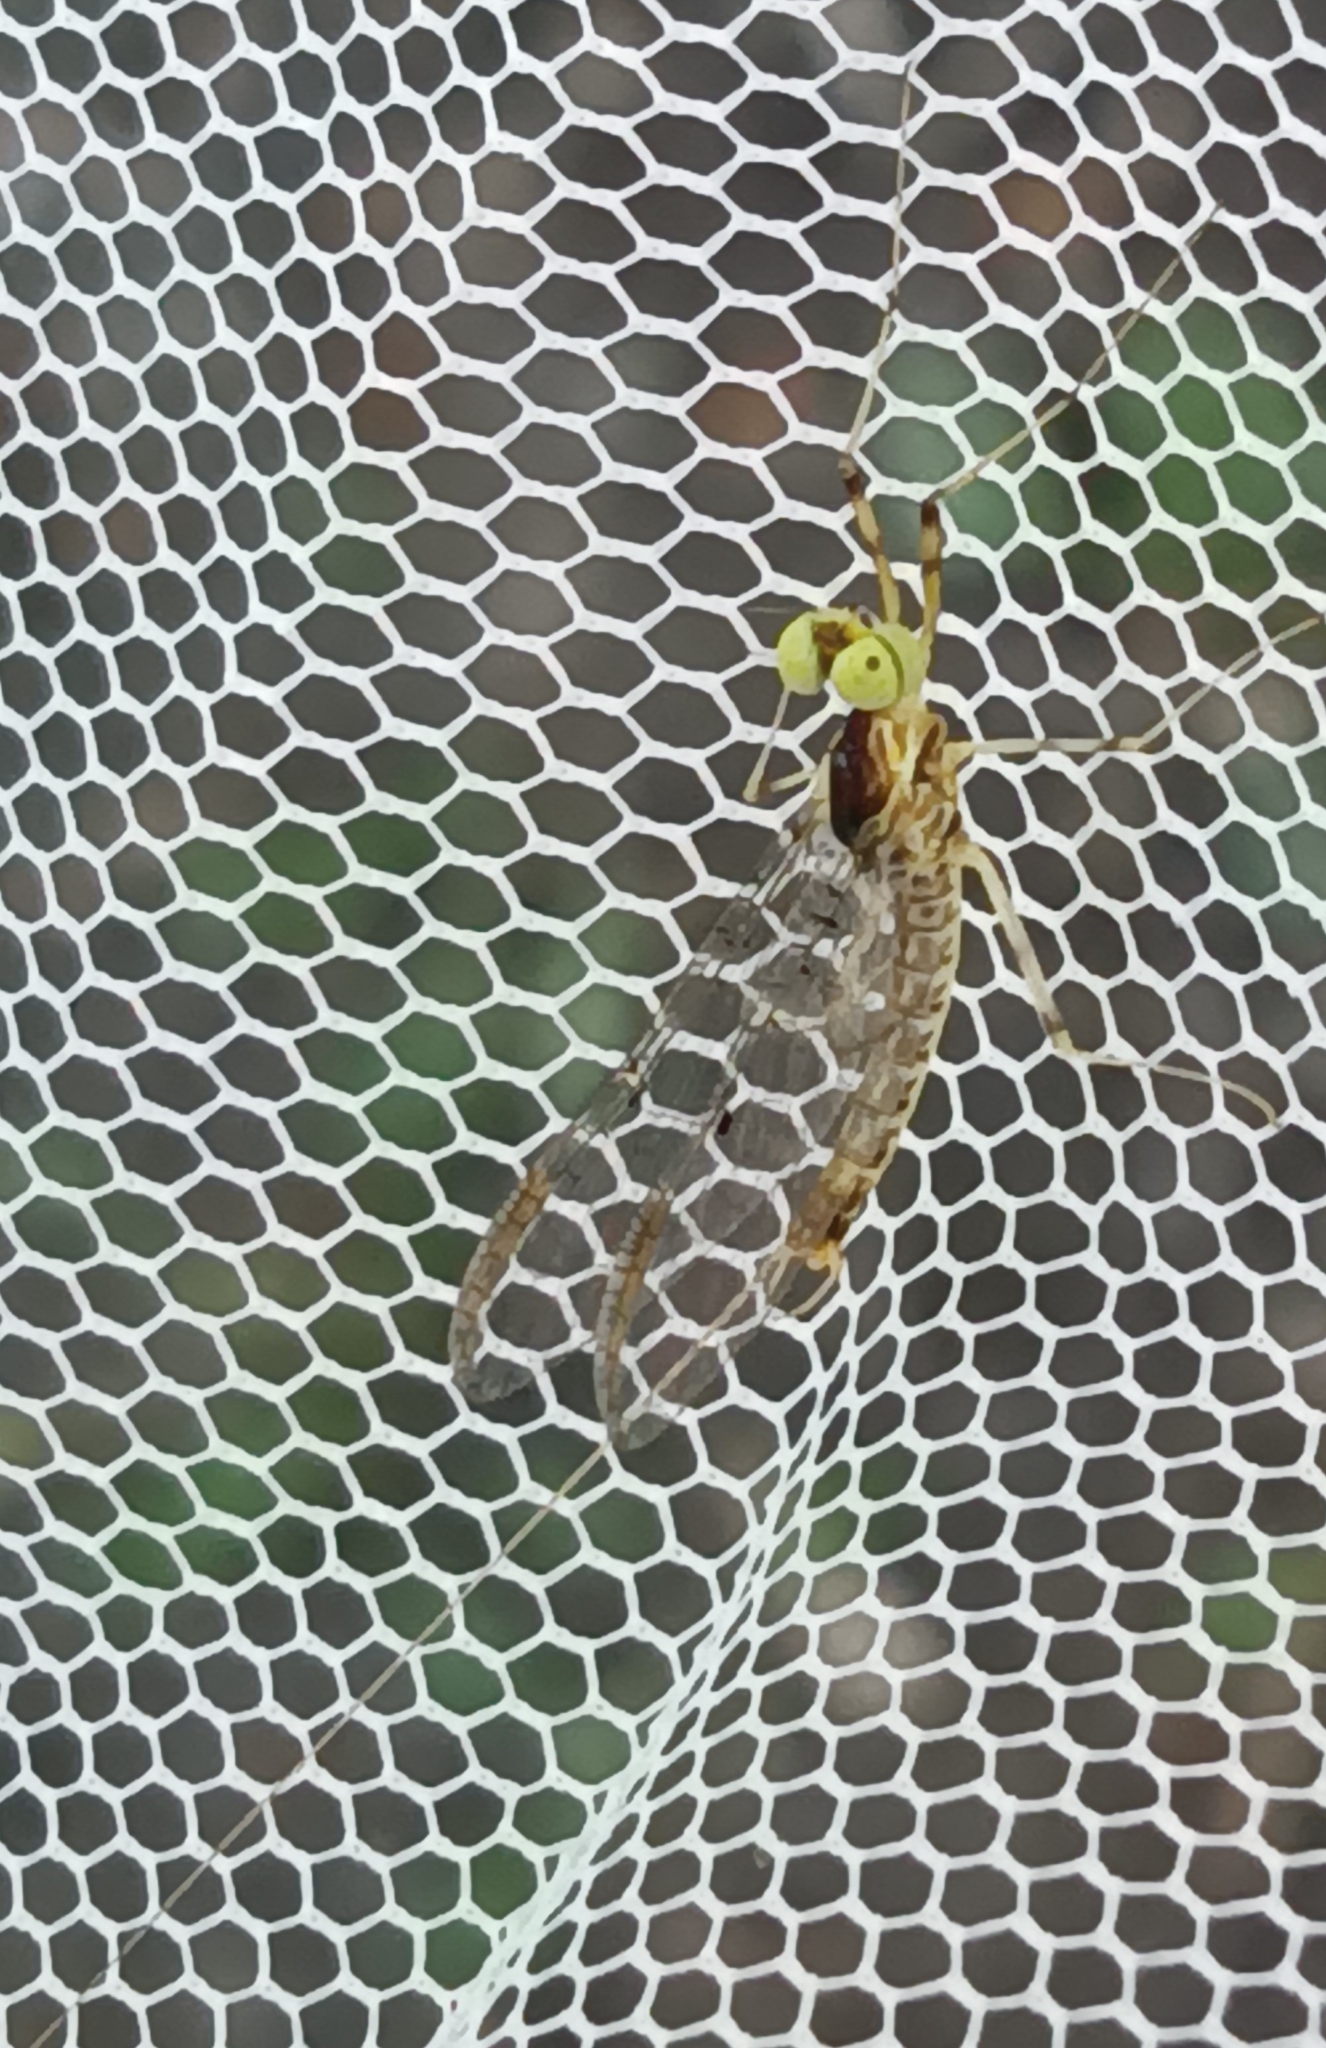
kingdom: Animalia
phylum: Arthropoda
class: Insecta
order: Ephemeroptera
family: Heptageniidae
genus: Stenacron
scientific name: Stenacron interpunctatum
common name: Orange cahill
